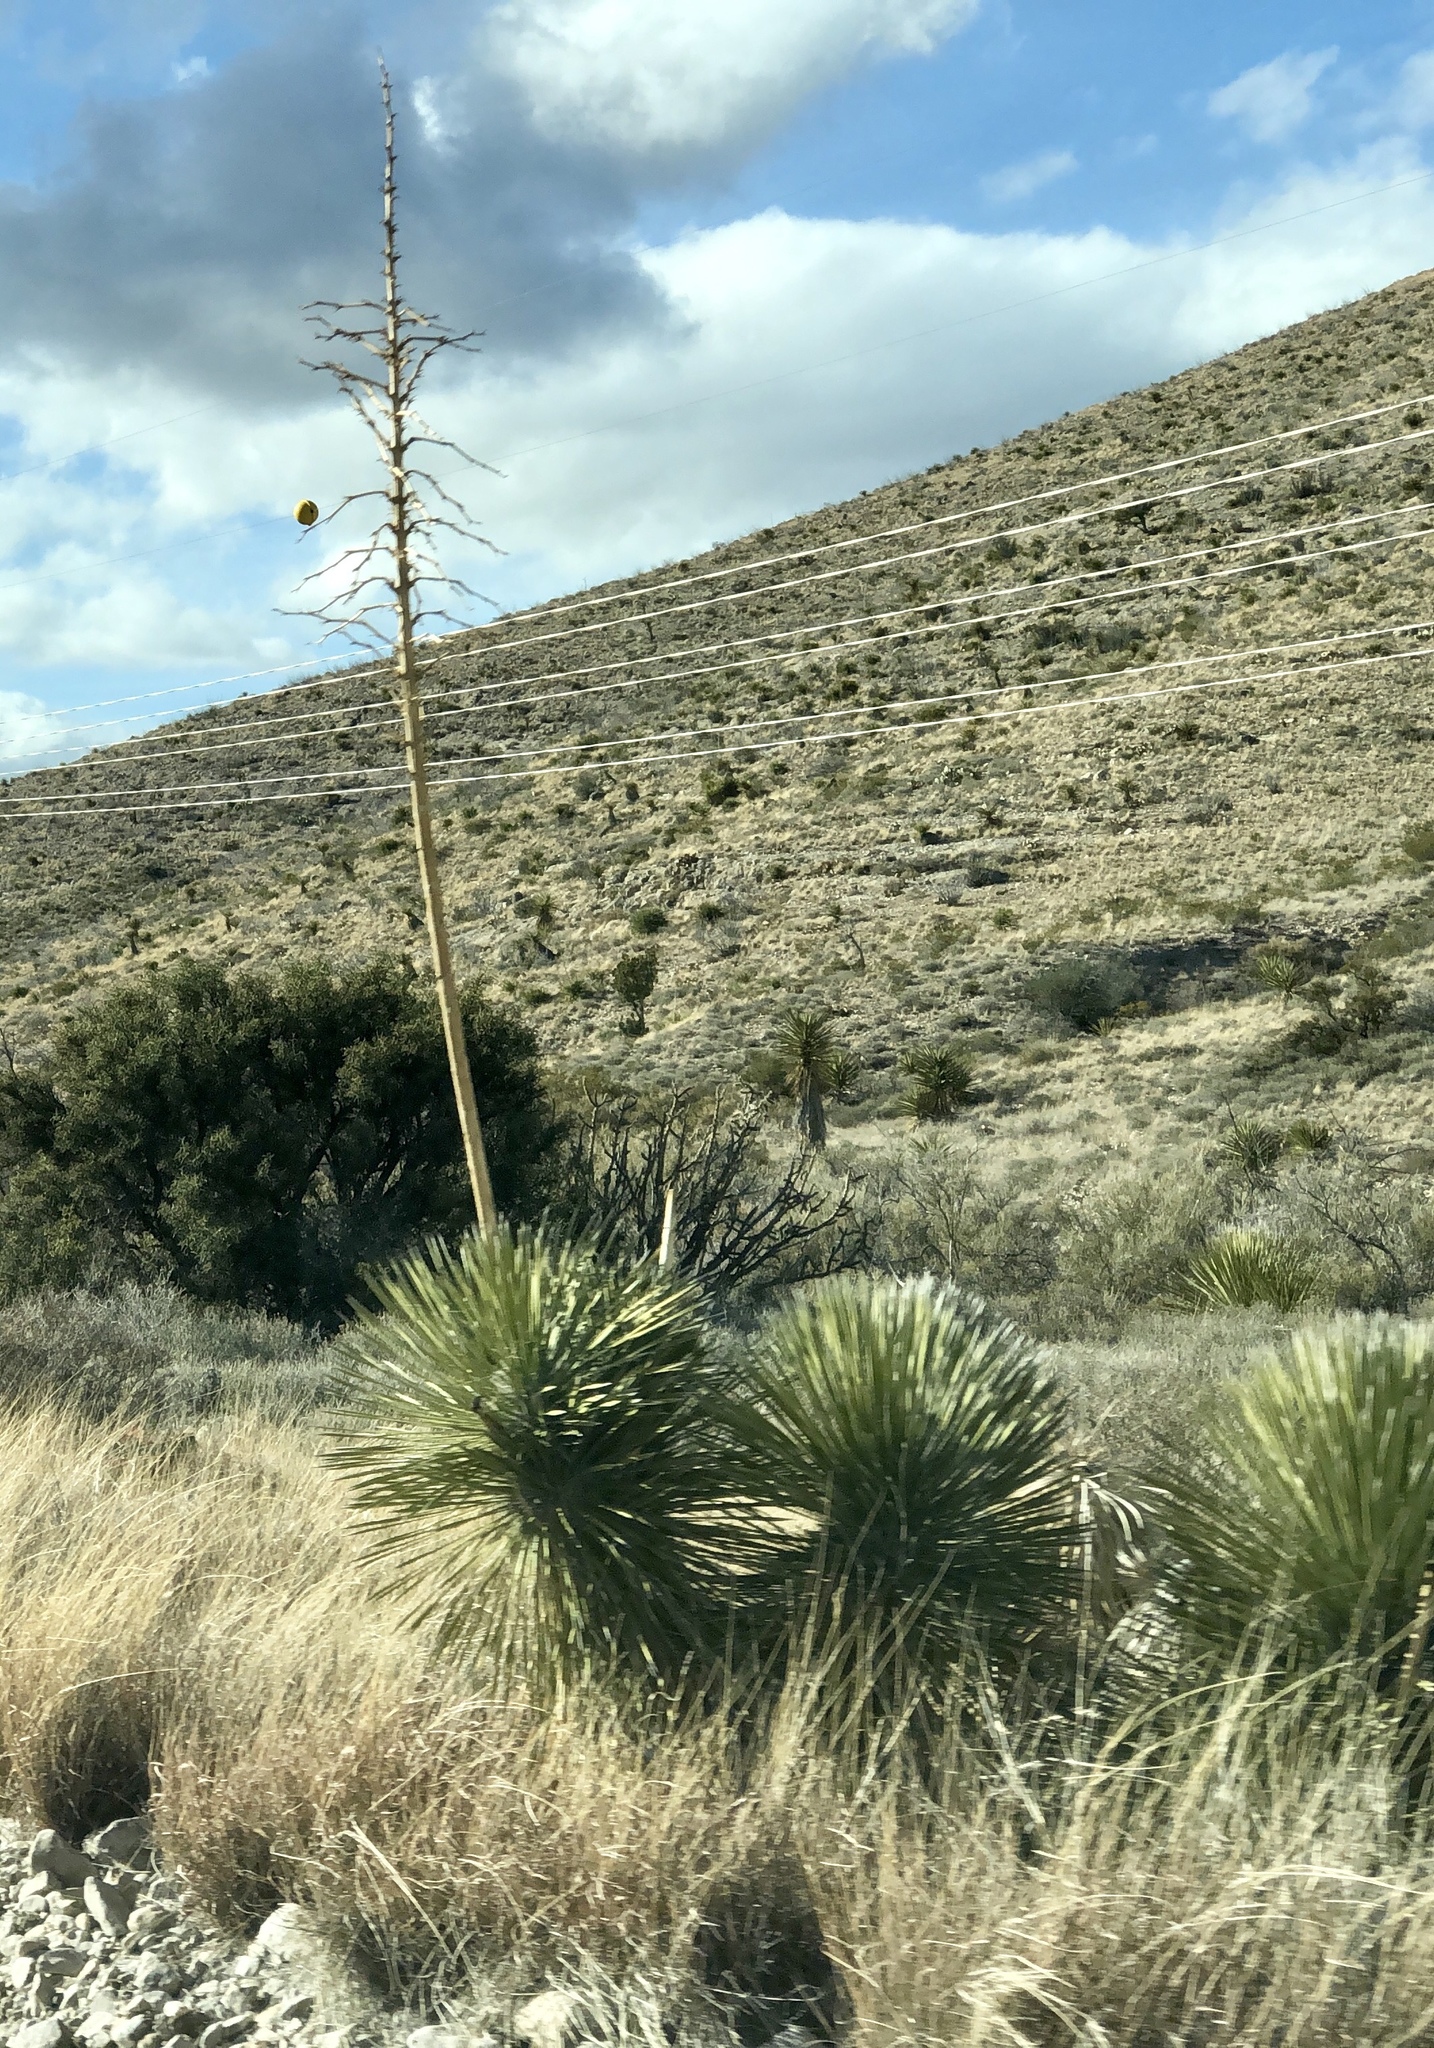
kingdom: Plantae
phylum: Tracheophyta
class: Liliopsida
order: Asparagales
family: Asparagaceae
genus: Yucca
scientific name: Yucca elata
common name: Palmella
